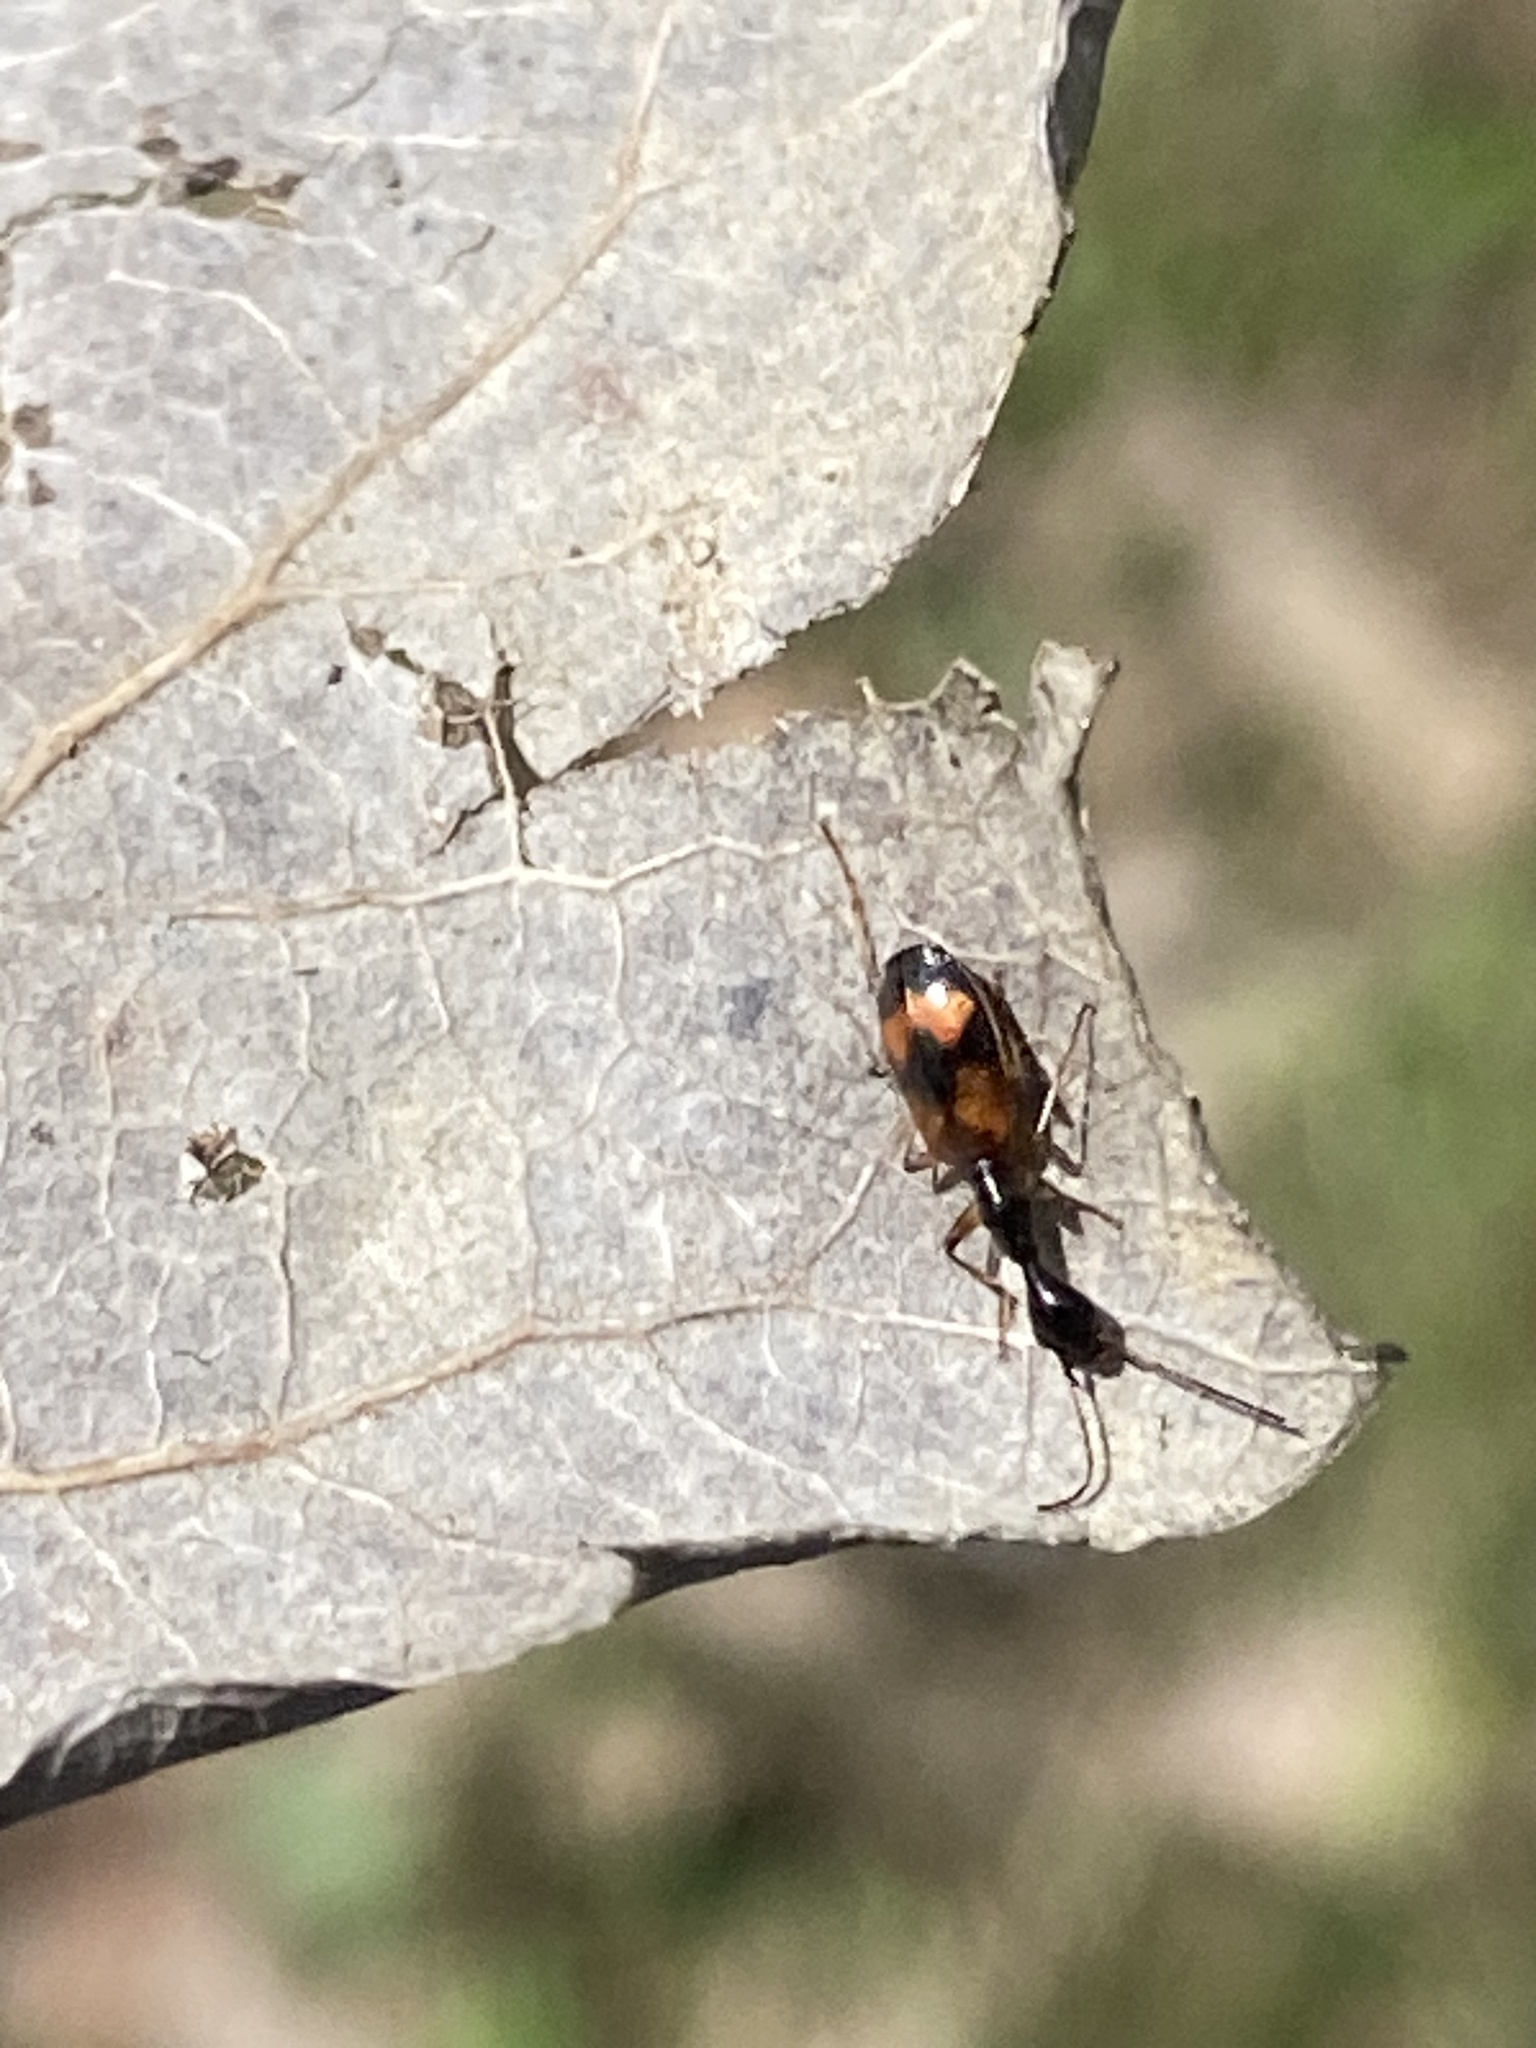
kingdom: Animalia
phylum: Arthropoda
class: Insecta
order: Coleoptera
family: Carabidae
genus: Colliuris
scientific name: Colliuris pensylvanica
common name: Long-necked ground beetle
